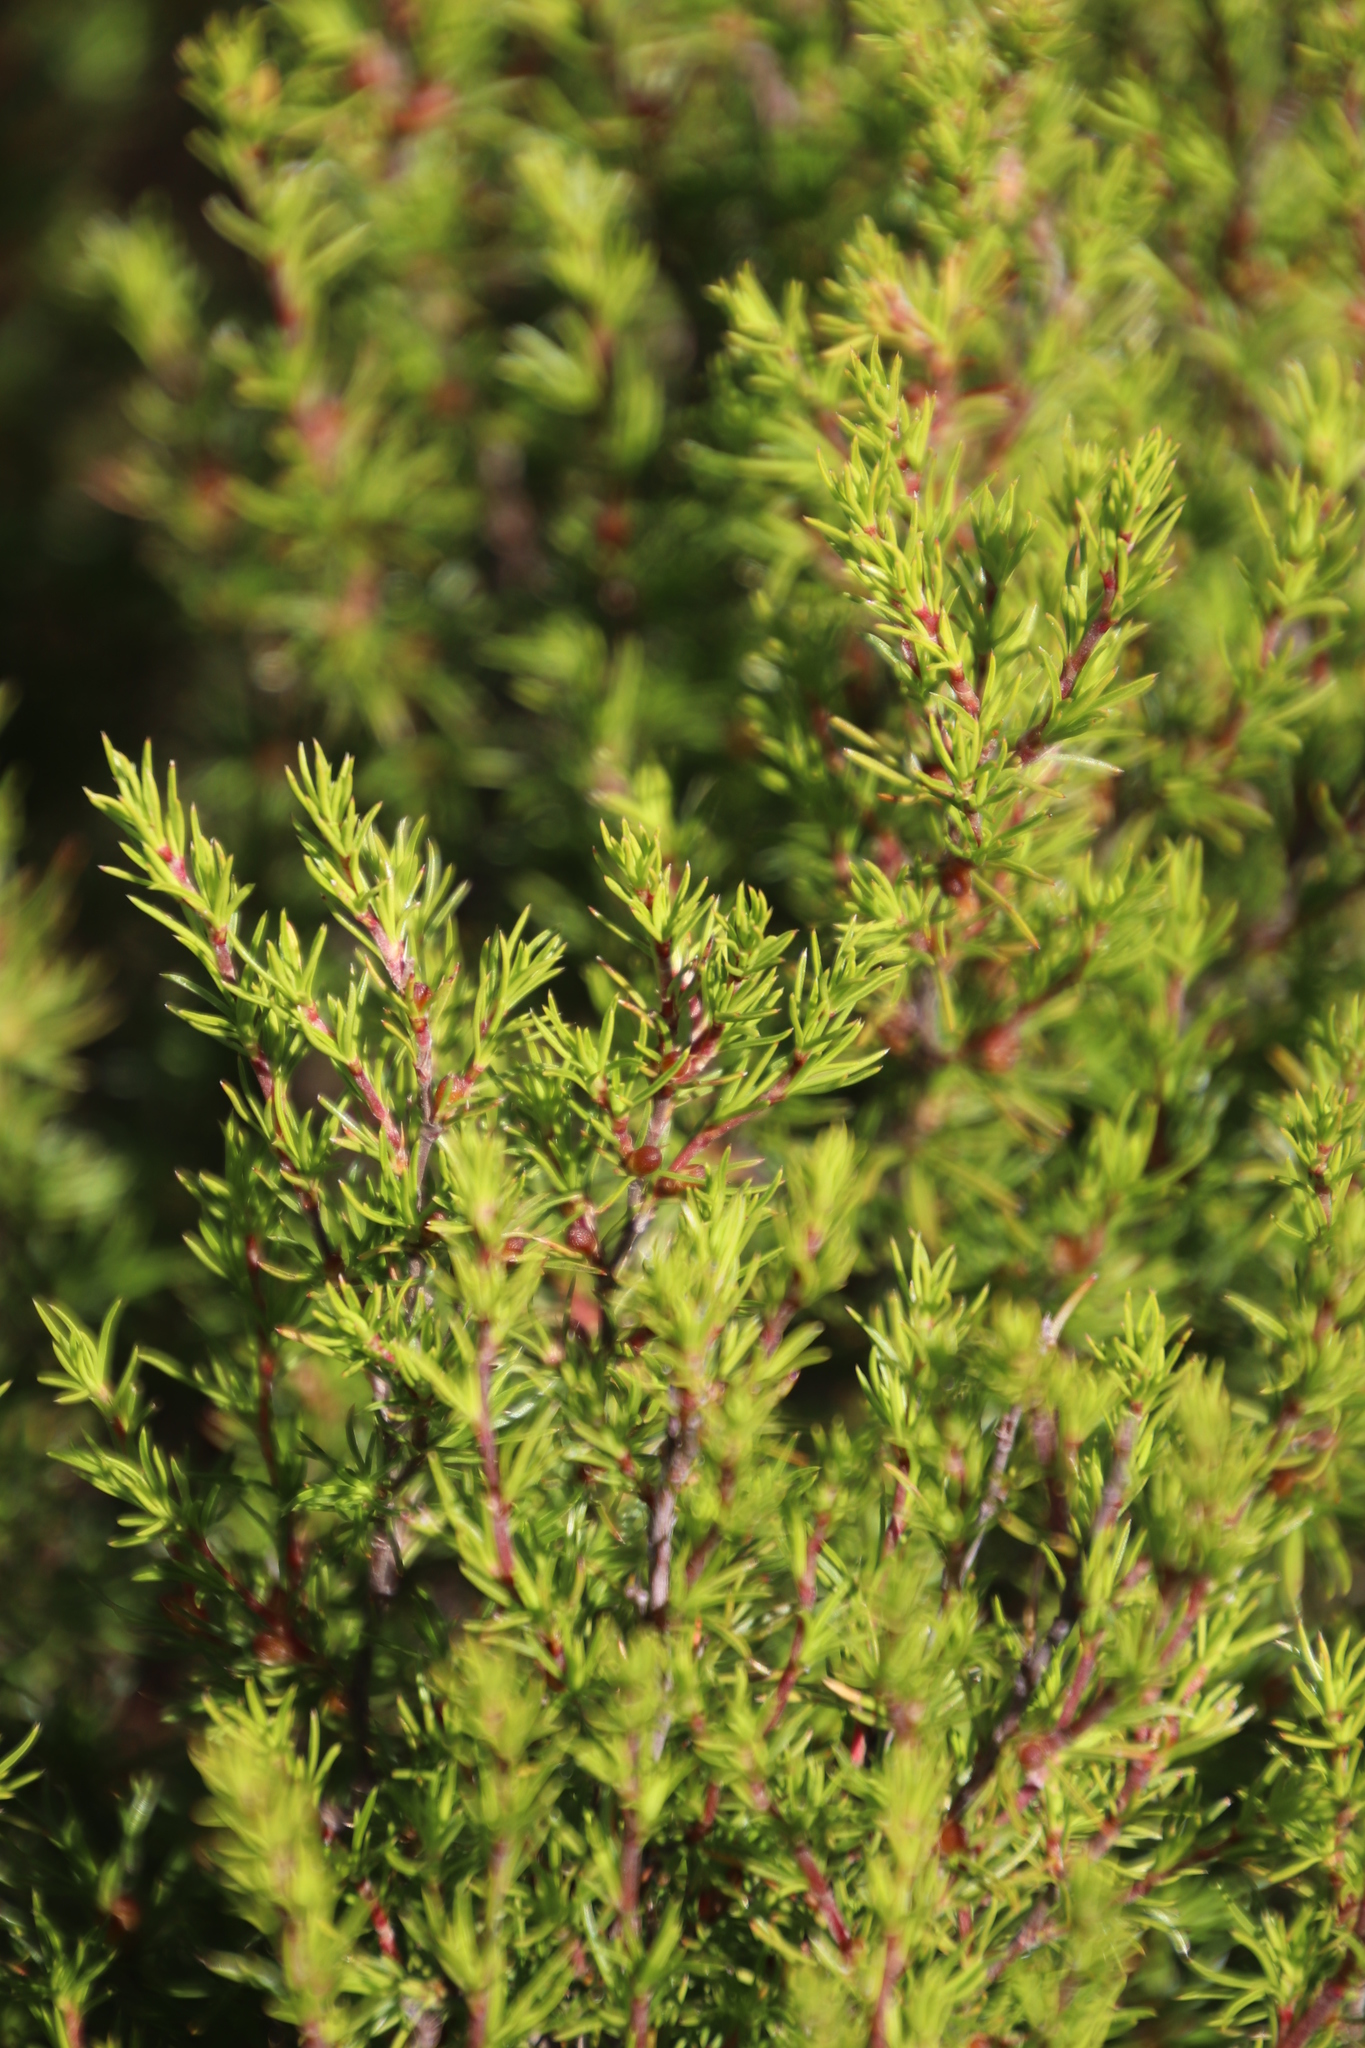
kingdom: Plantae
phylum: Tracheophyta
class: Magnoliopsida
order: Rosales
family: Rosaceae
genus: Cliffortia
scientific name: Cliffortia atrata
